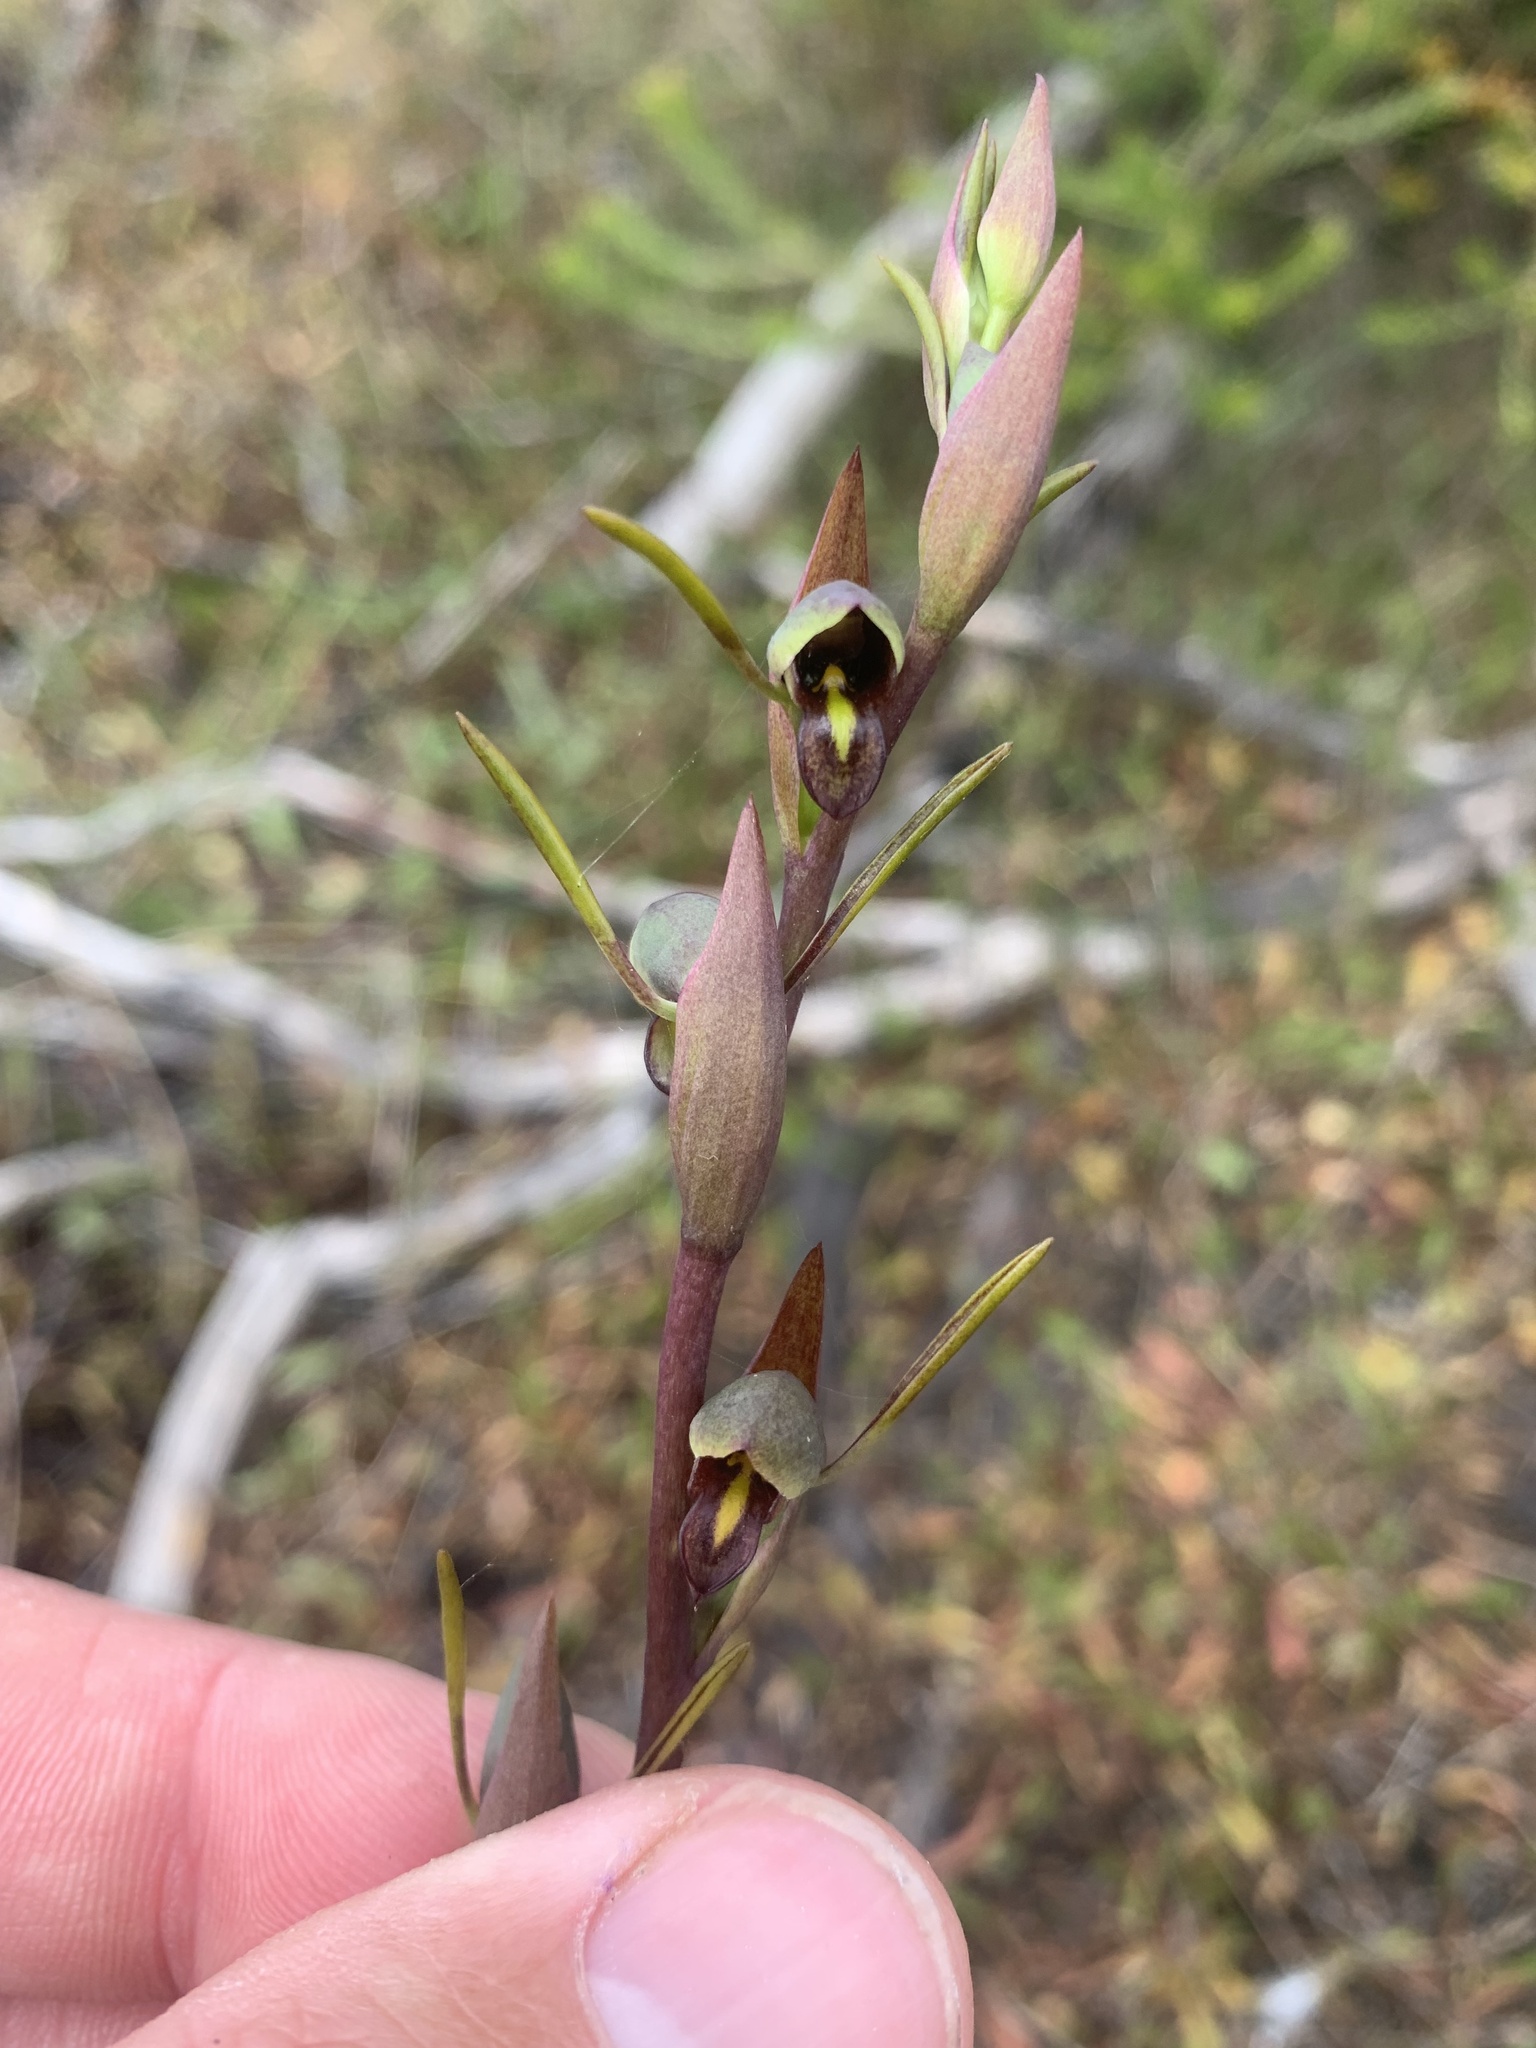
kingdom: Plantae
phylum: Tracheophyta
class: Liliopsida
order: Asparagales
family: Orchidaceae
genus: Orthoceras
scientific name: Orthoceras strictum
